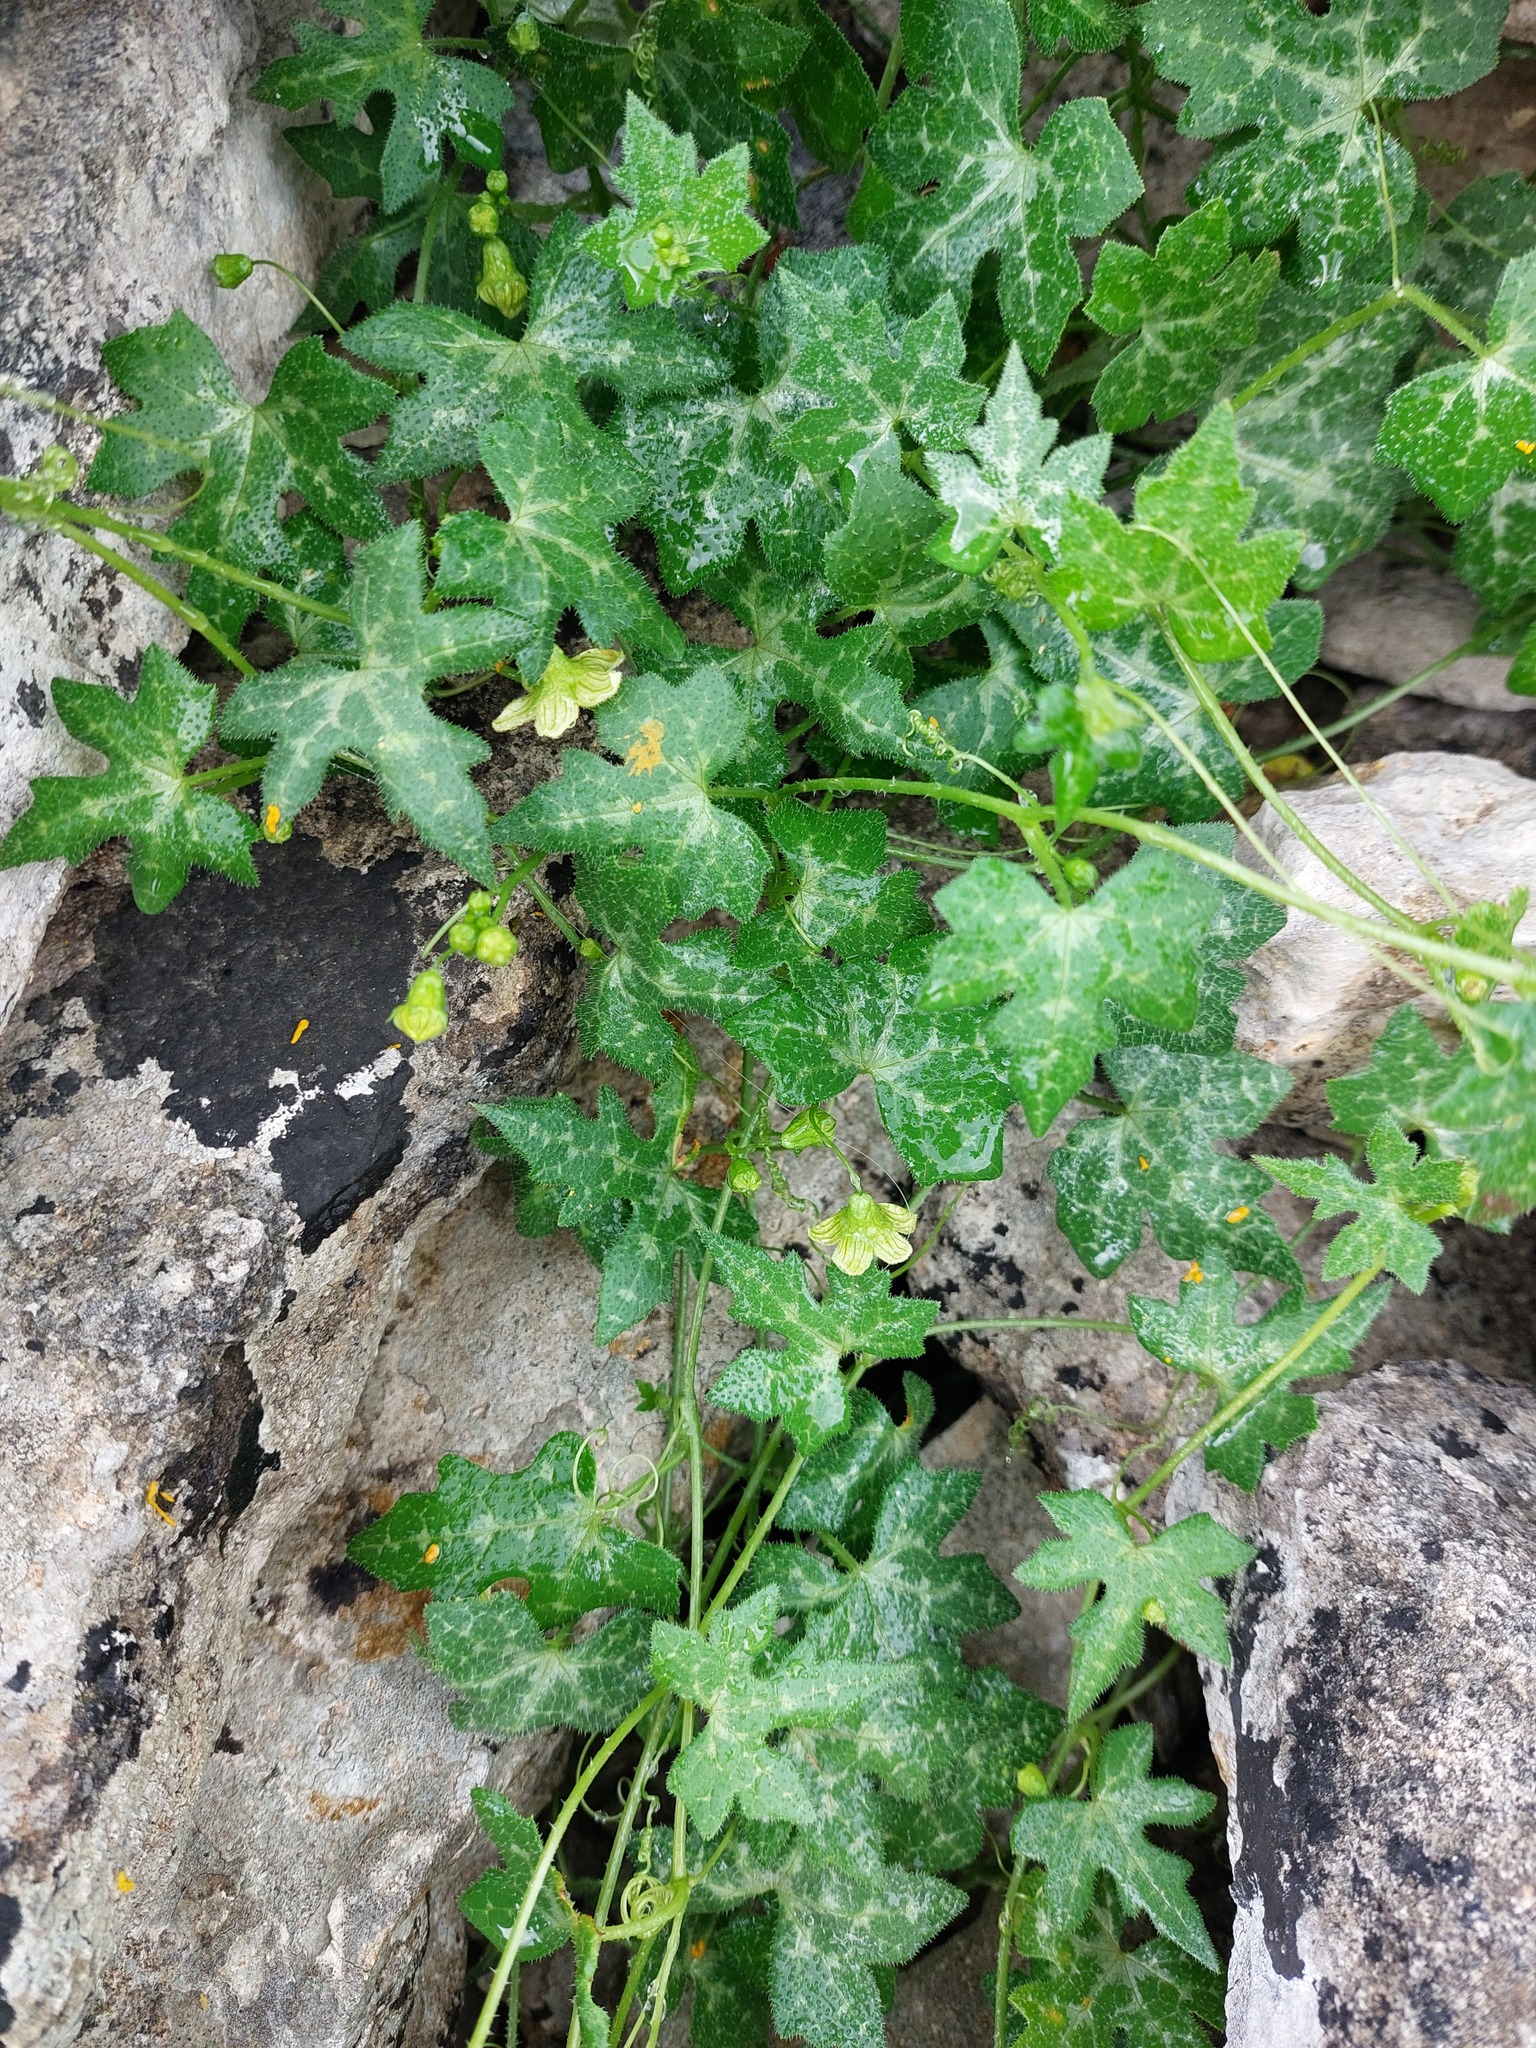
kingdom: Plantae
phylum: Tracheophyta
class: Magnoliopsida
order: Cucurbitales
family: Cucurbitaceae
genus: Bryonia
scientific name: Bryonia cretica
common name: Cretan bryony
